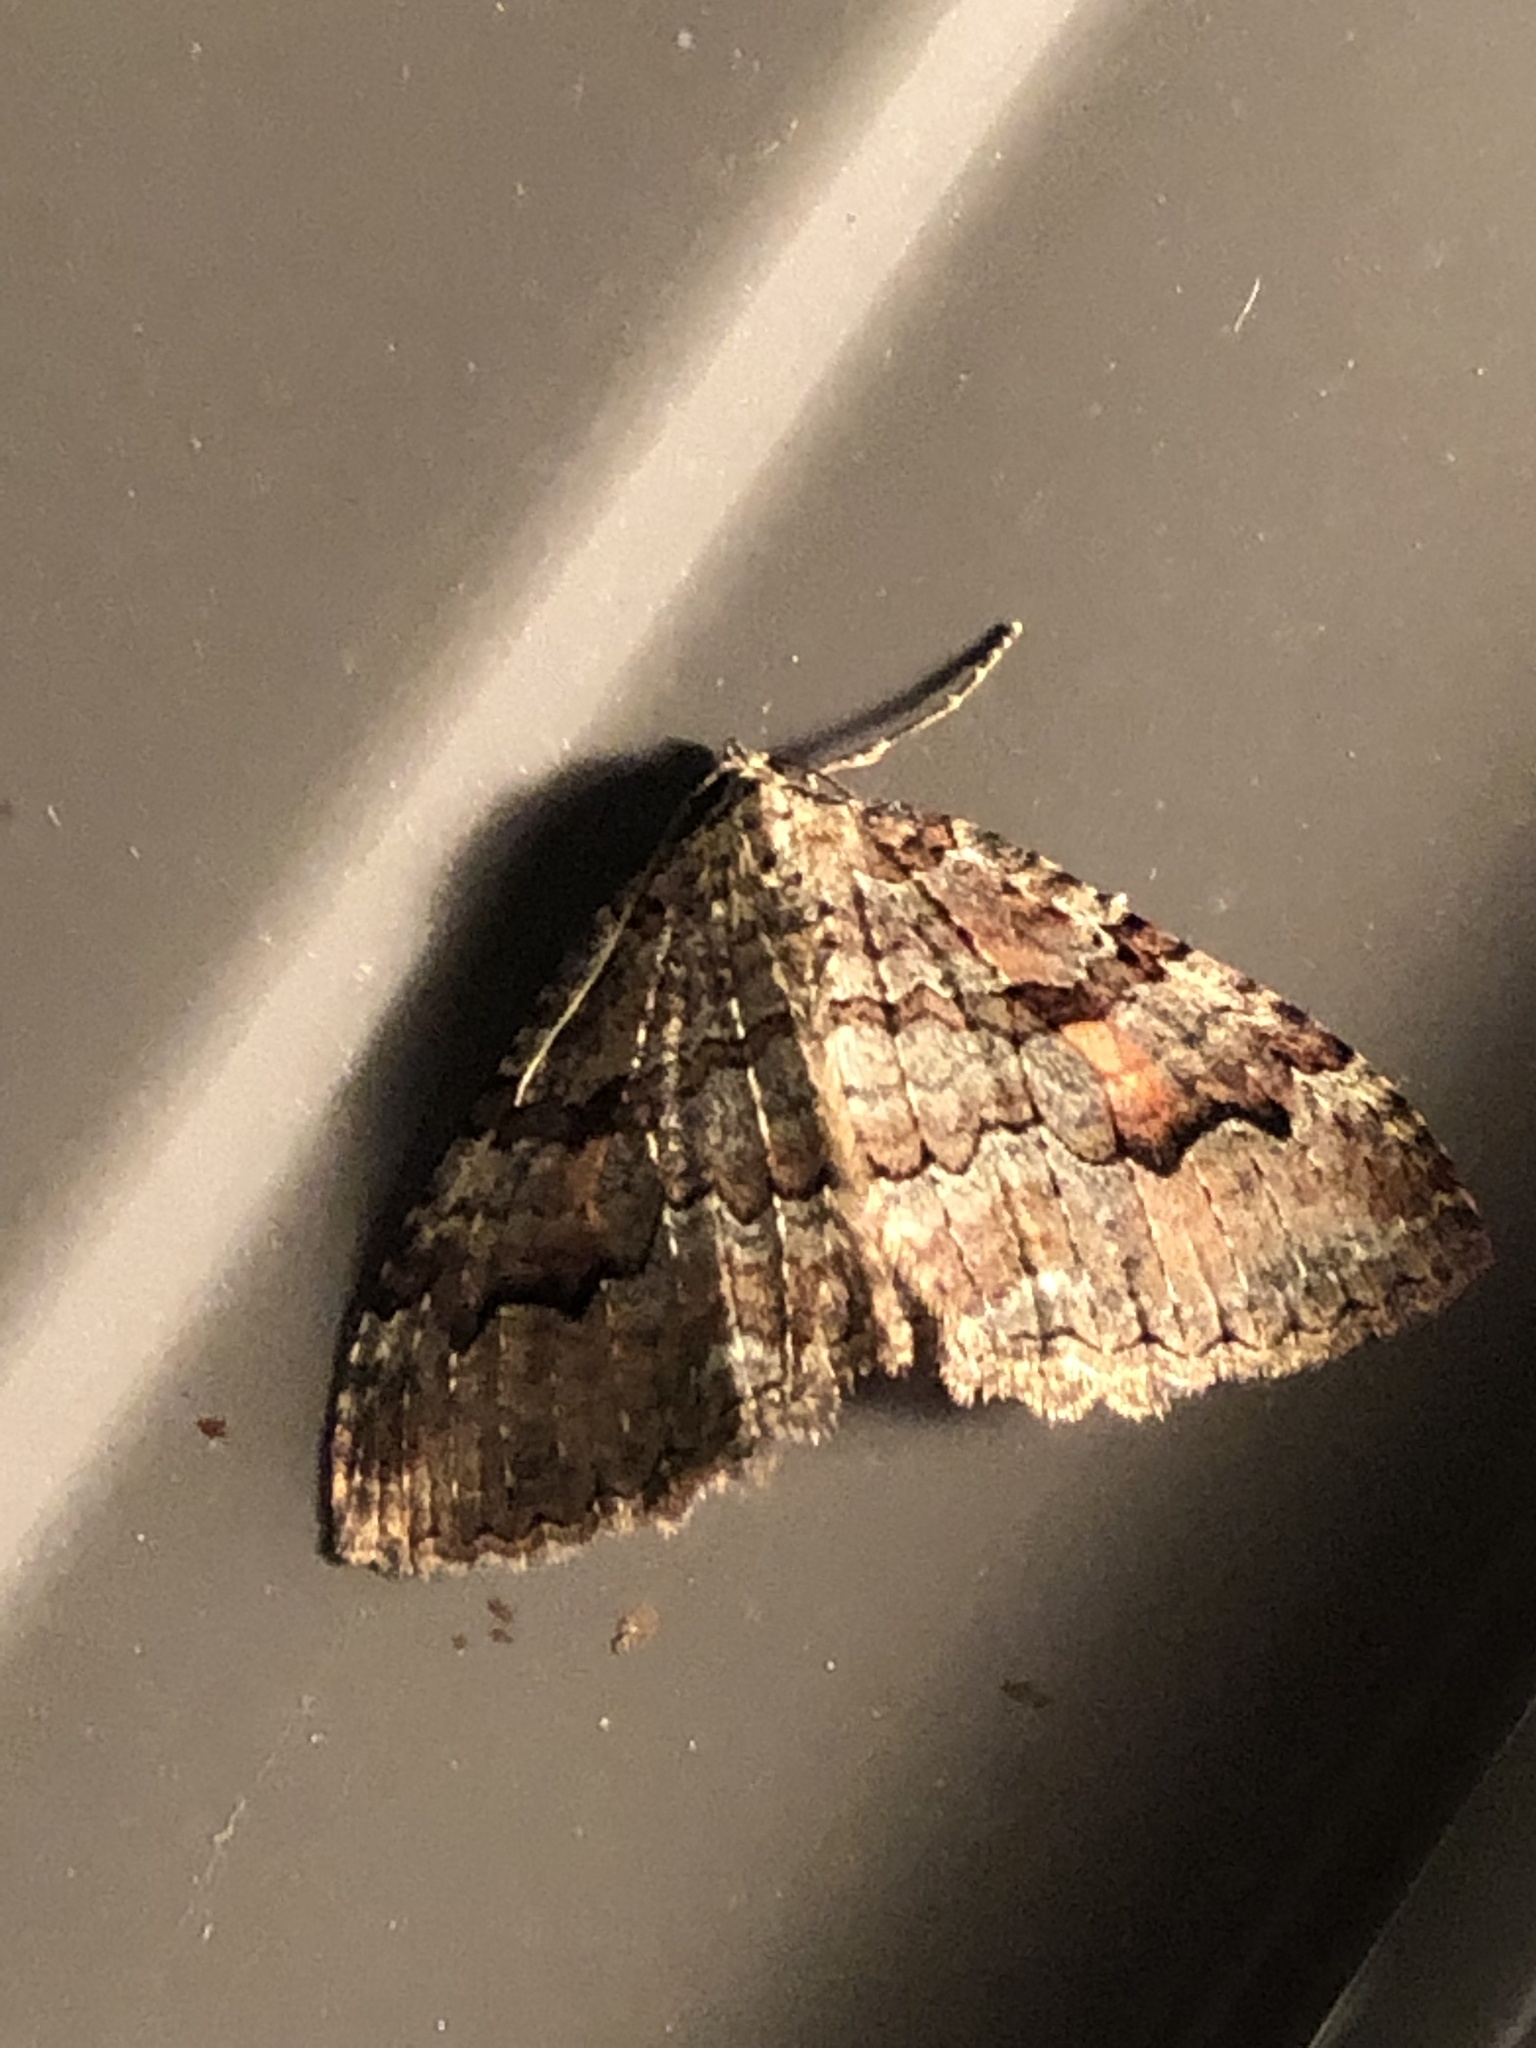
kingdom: Animalia
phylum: Arthropoda
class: Insecta
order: Lepidoptera
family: Geometridae
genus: Triphosa
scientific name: Triphosa haesitata
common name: Tissue moth
